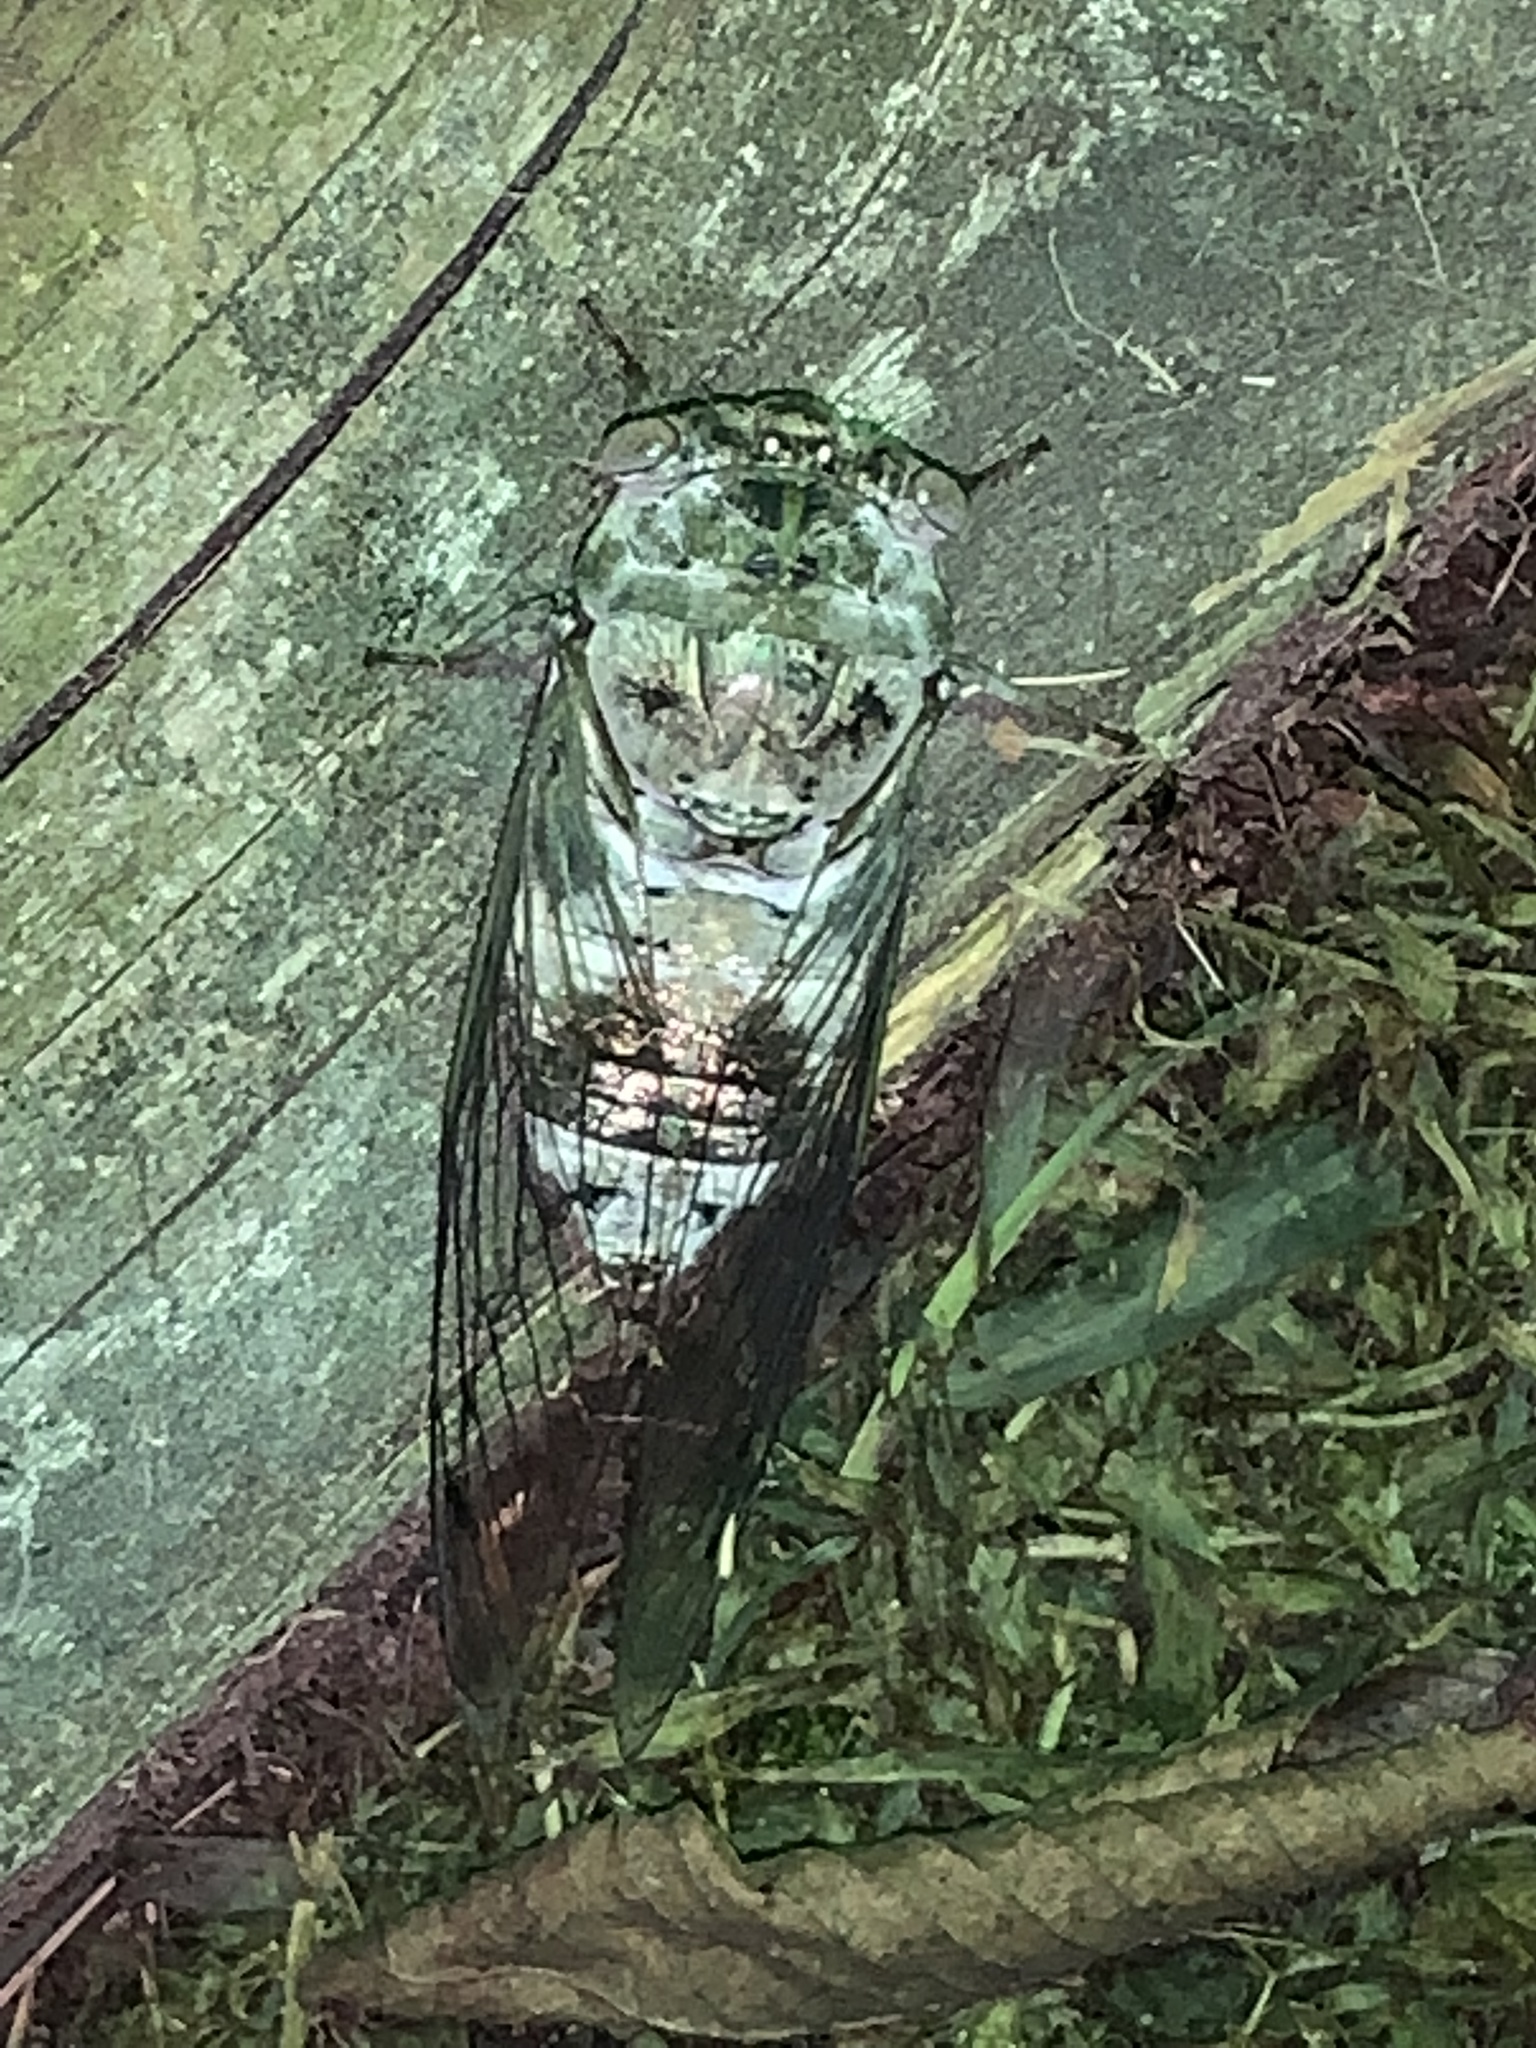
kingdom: Animalia
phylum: Arthropoda
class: Insecta
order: Hemiptera
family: Cicadidae
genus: Diceroprocta
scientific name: Diceroprocta grossa
